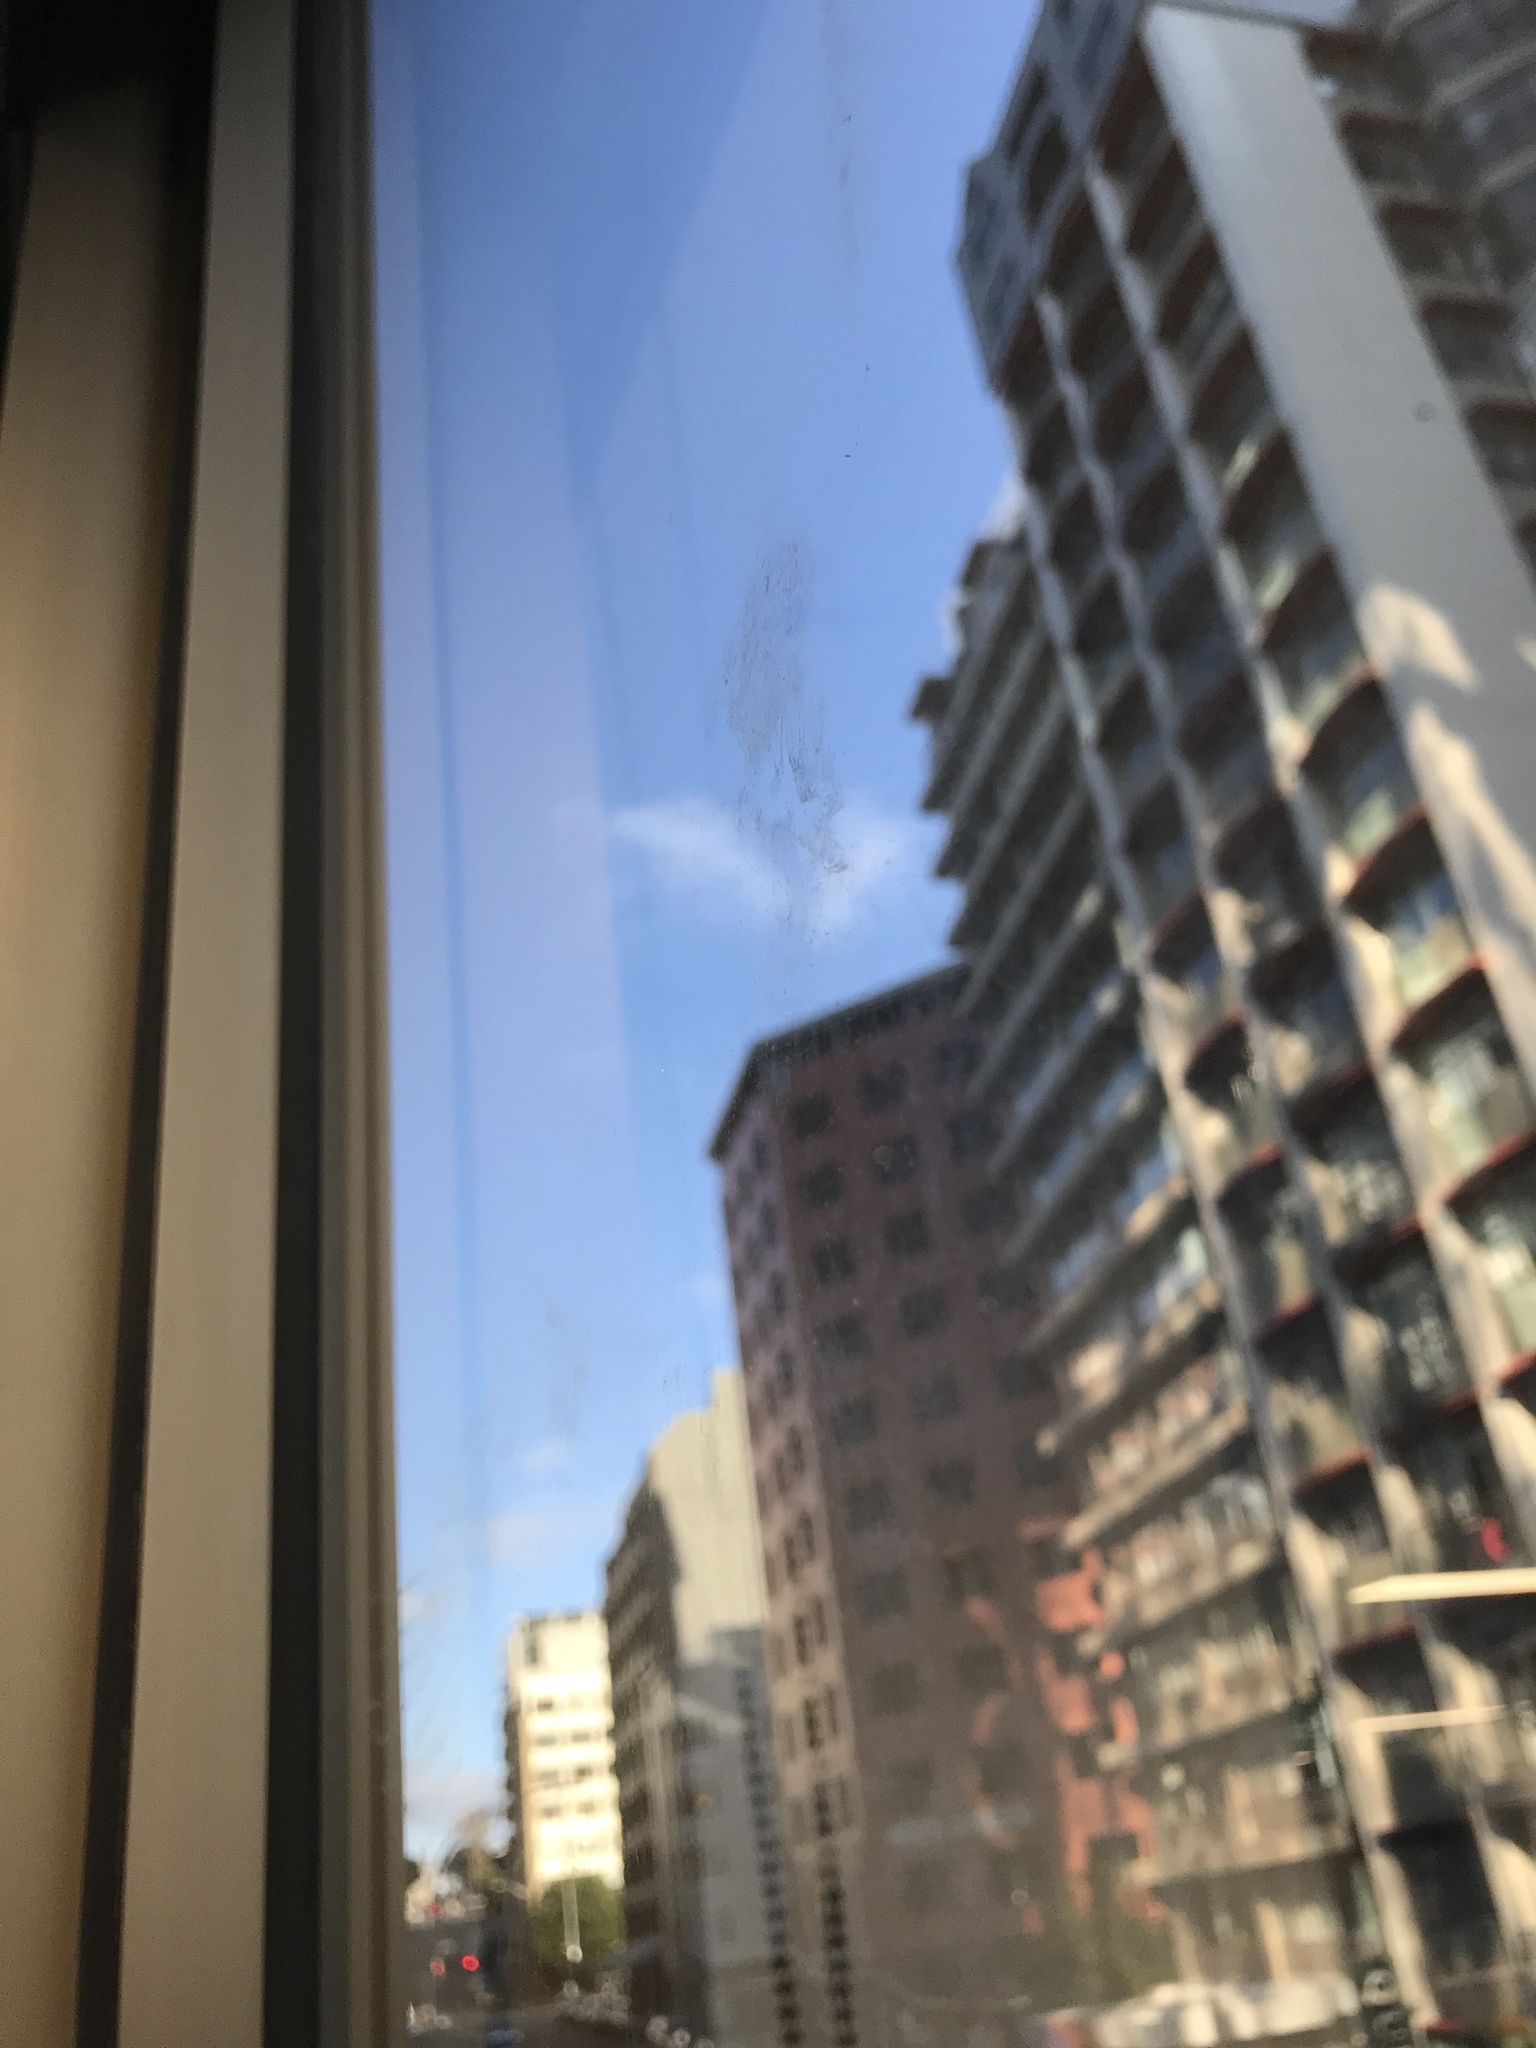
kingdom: Animalia
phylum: Chordata
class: Aves
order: Columbiformes
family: Columbidae
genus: Columba
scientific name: Columba livia
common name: Rock pigeon
